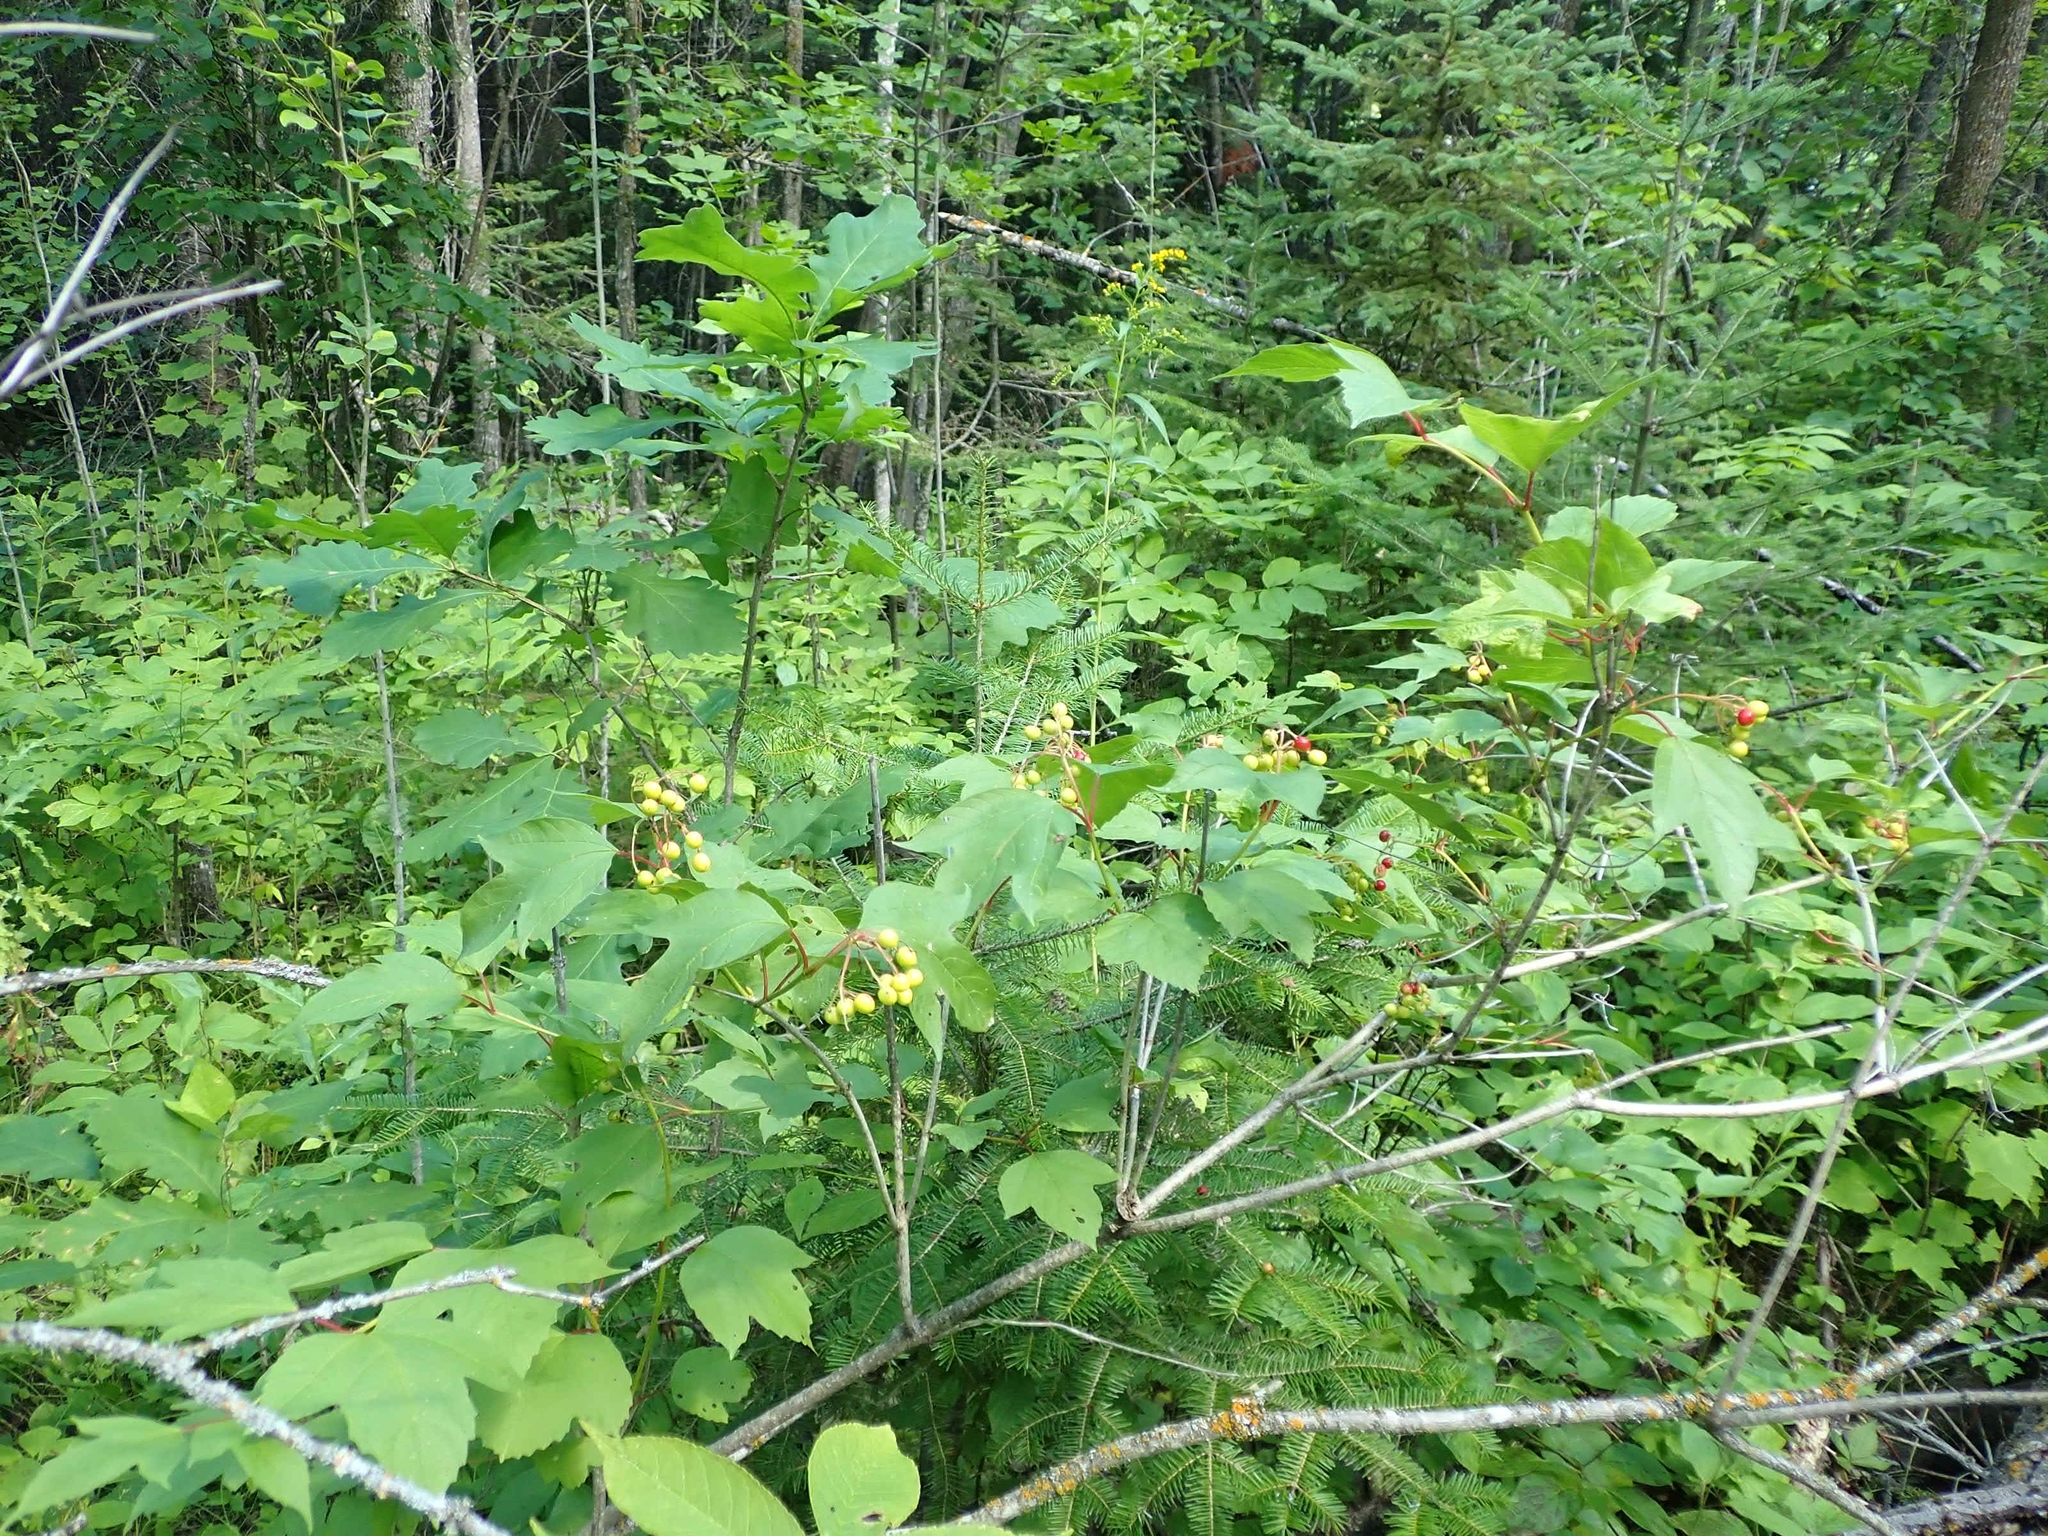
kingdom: Plantae
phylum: Tracheophyta
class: Magnoliopsida
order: Dipsacales
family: Viburnaceae
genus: Viburnum
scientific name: Viburnum trilobum
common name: American cranberrybush
